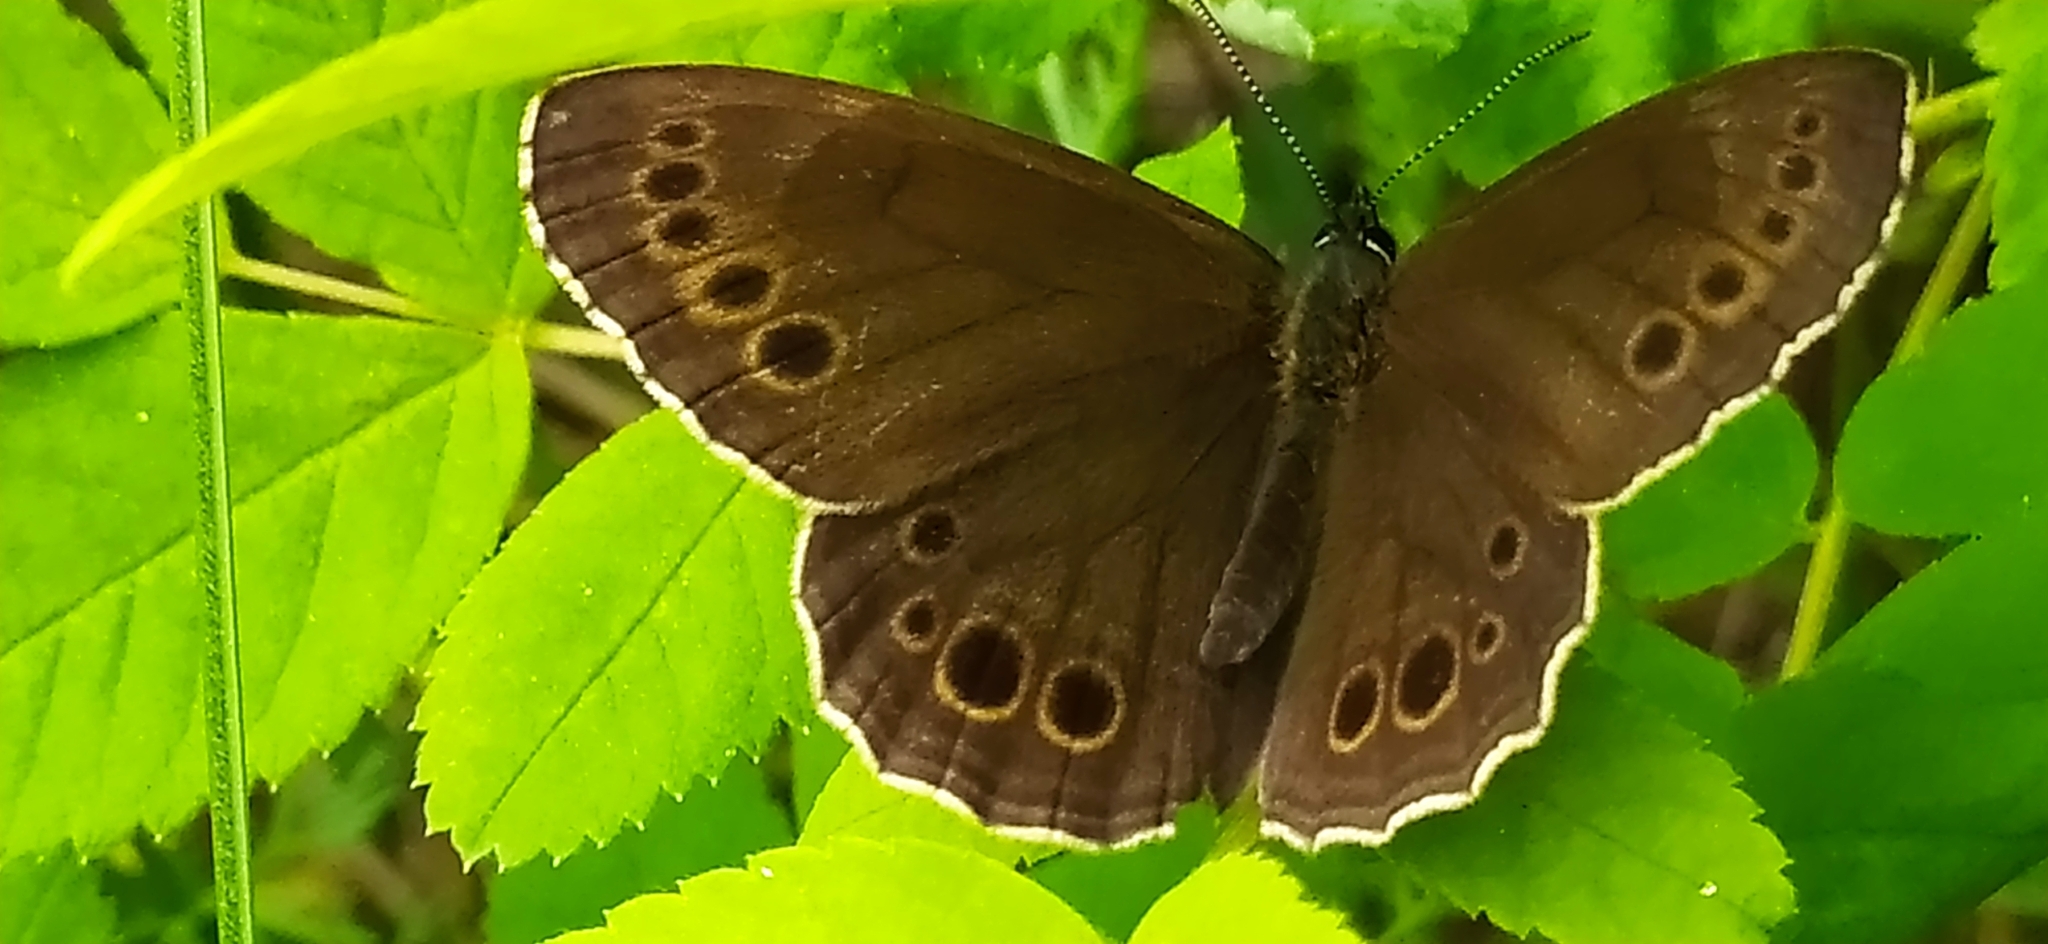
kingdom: Animalia
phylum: Arthropoda
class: Insecta
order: Lepidoptera
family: Nymphalidae
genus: Pararge
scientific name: Pararge Lopinga achine
